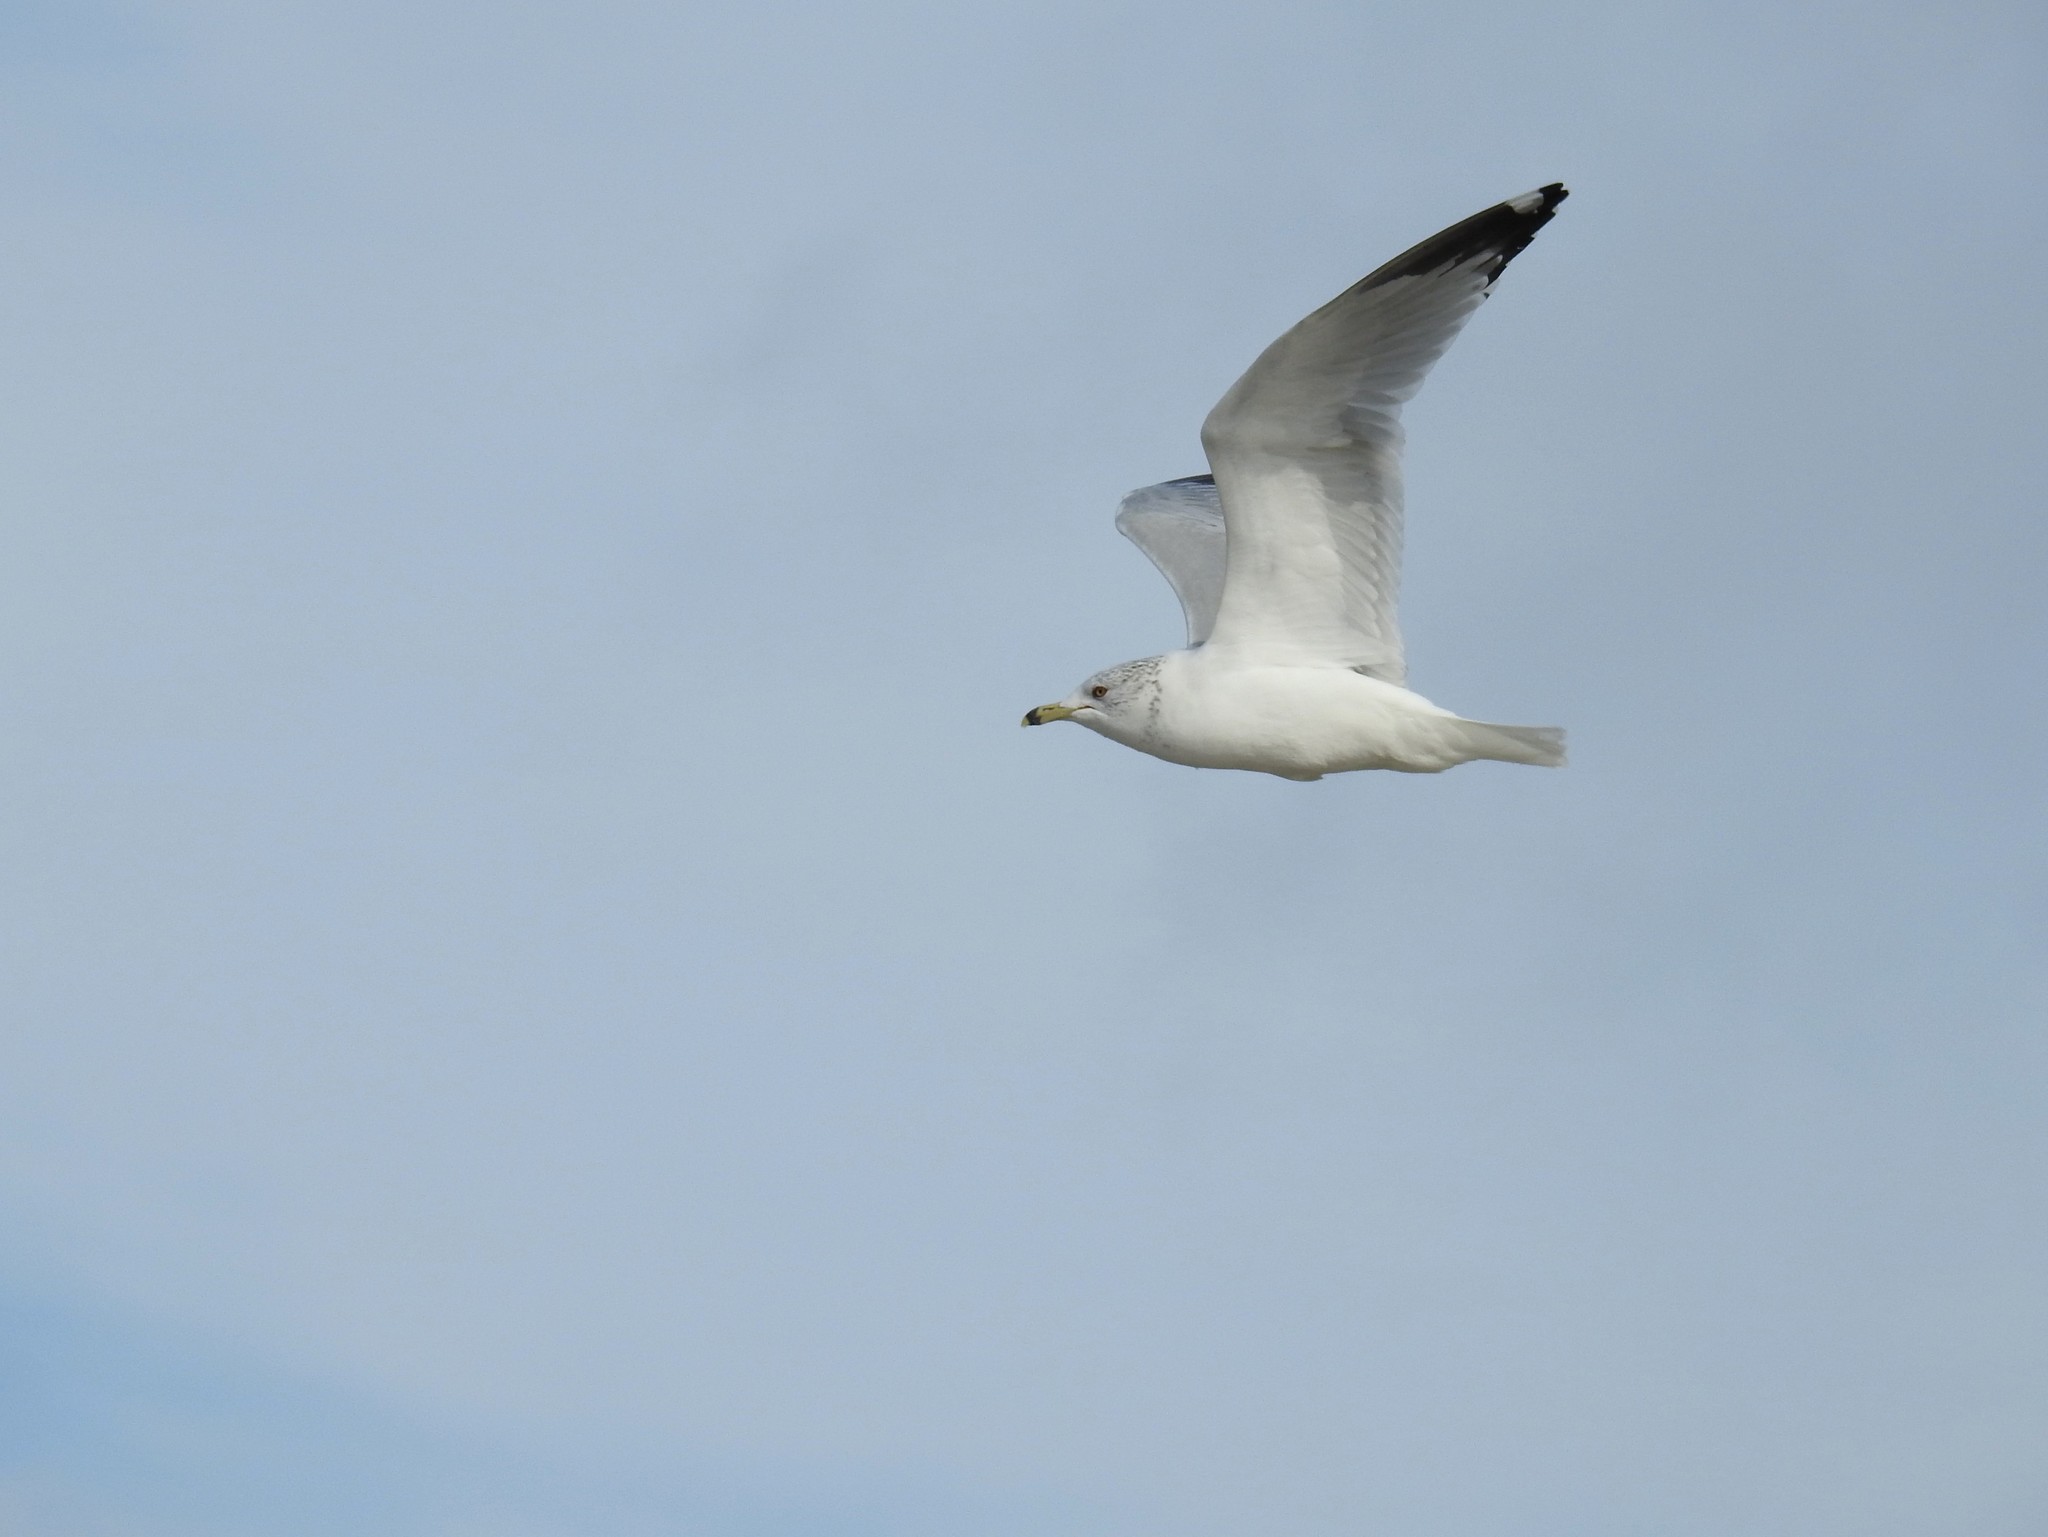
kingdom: Animalia
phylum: Chordata
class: Aves
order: Charadriiformes
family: Laridae
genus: Larus
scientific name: Larus delawarensis
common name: Ring-billed gull
